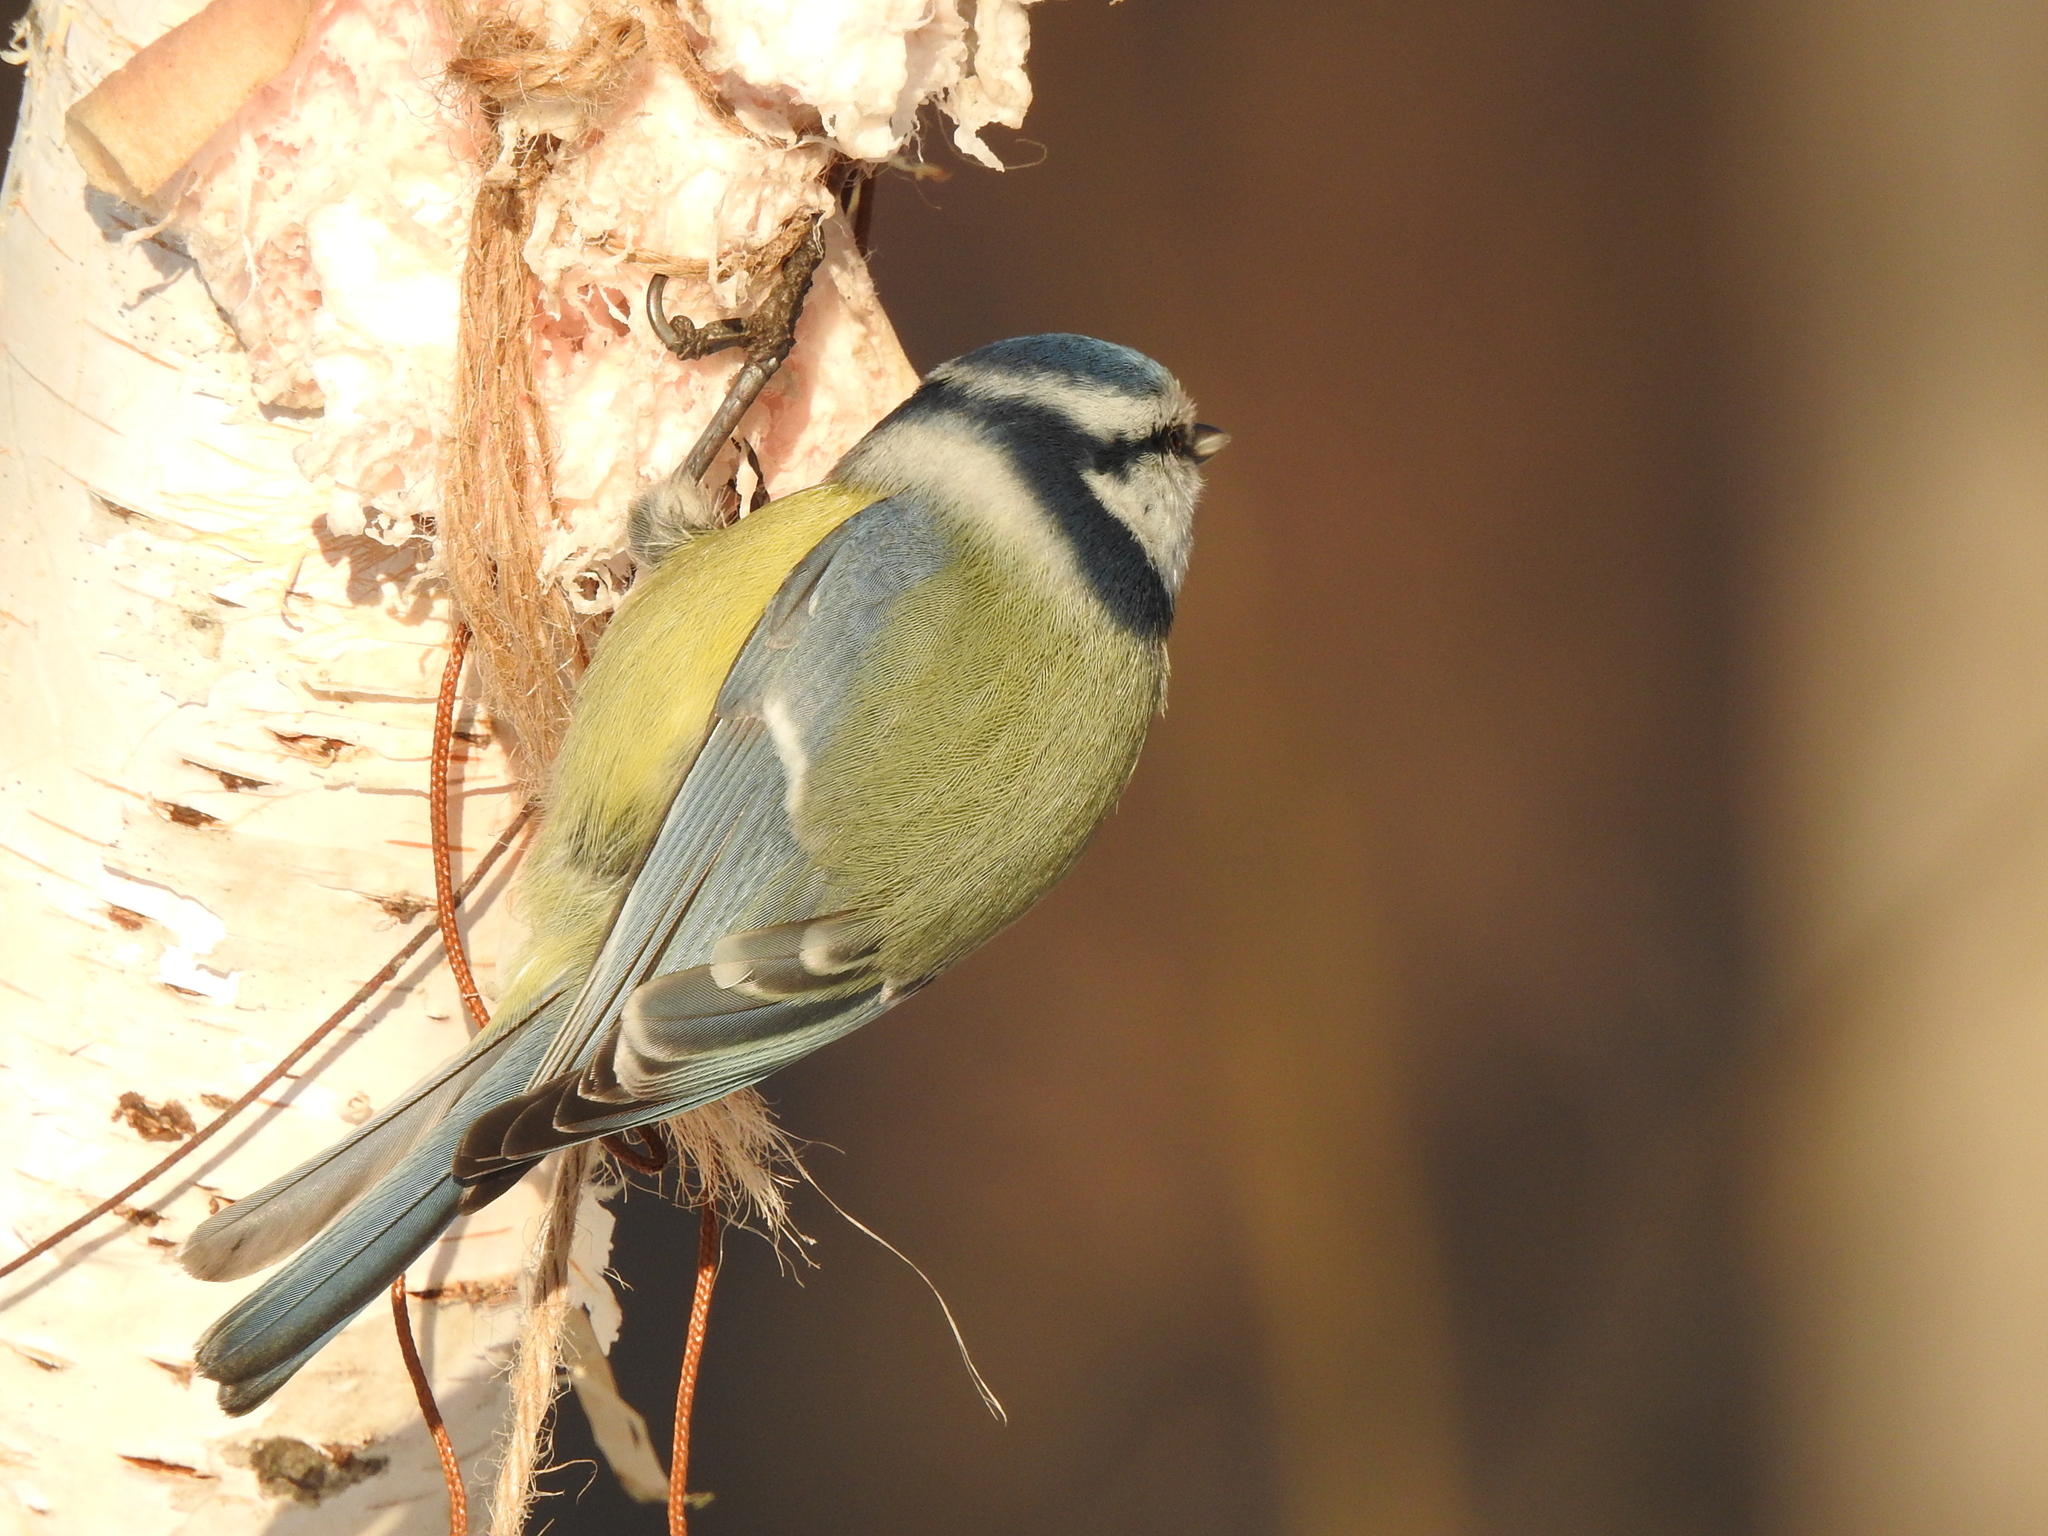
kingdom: Animalia
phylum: Chordata
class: Aves
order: Passeriformes
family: Paridae
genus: Cyanistes
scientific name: Cyanistes caeruleus
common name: Eurasian blue tit
